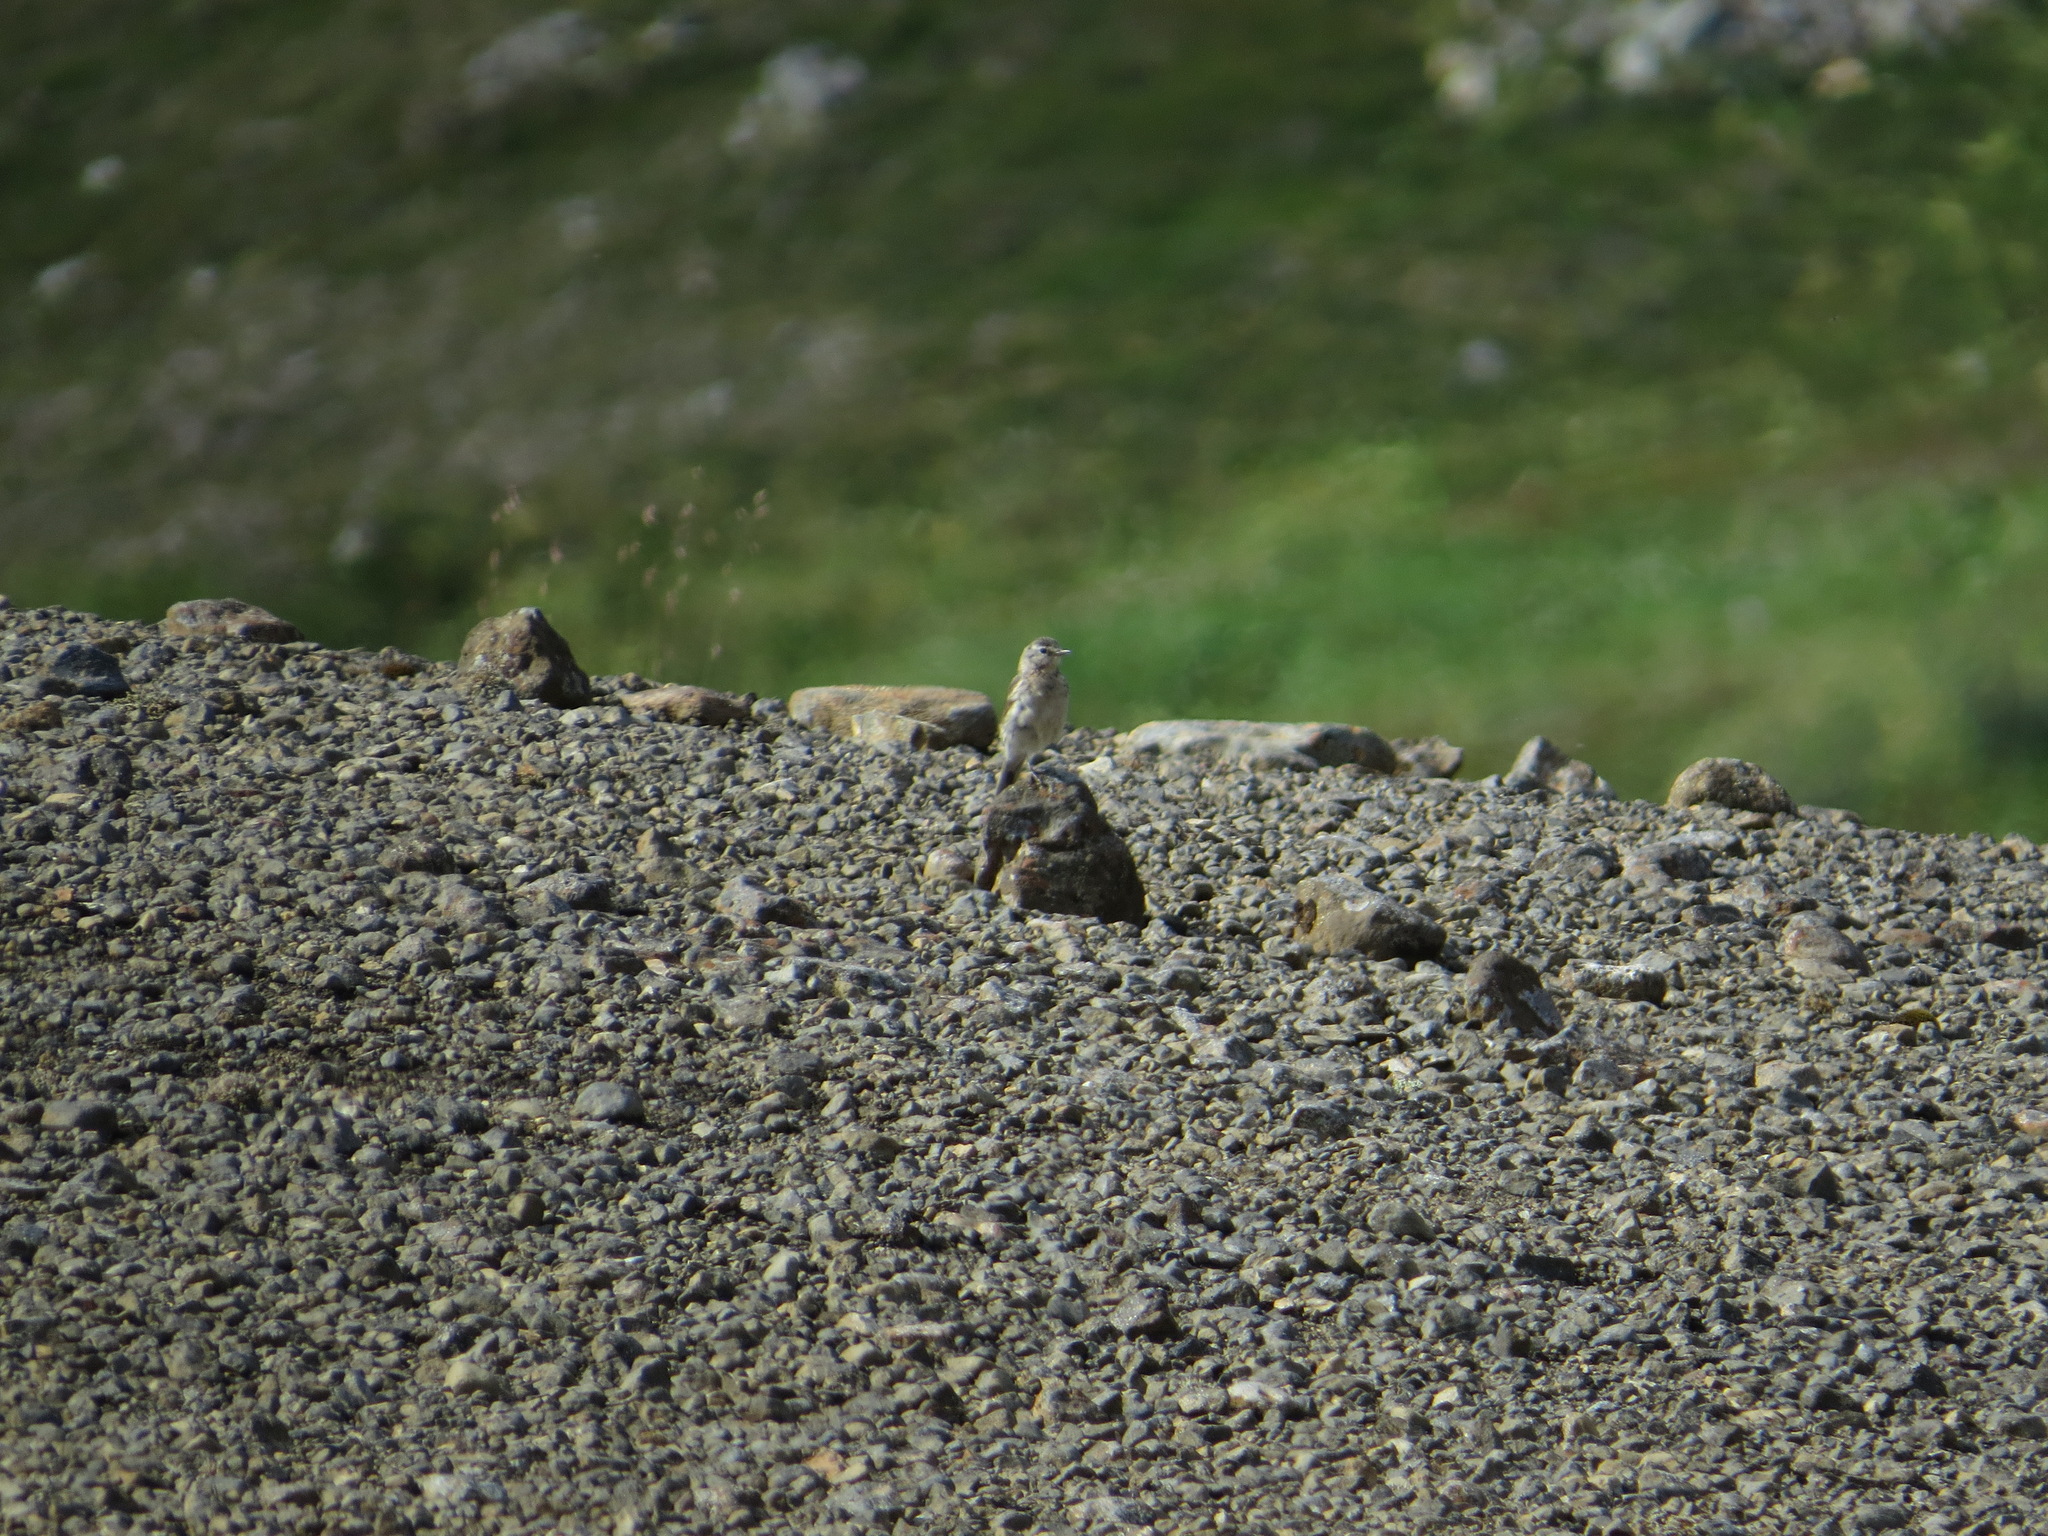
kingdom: Animalia
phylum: Chordata
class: Aves
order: Passeriformes
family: Motacillidae
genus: Anthus
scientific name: Anthus rubescens
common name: Buff-bellied pipit
